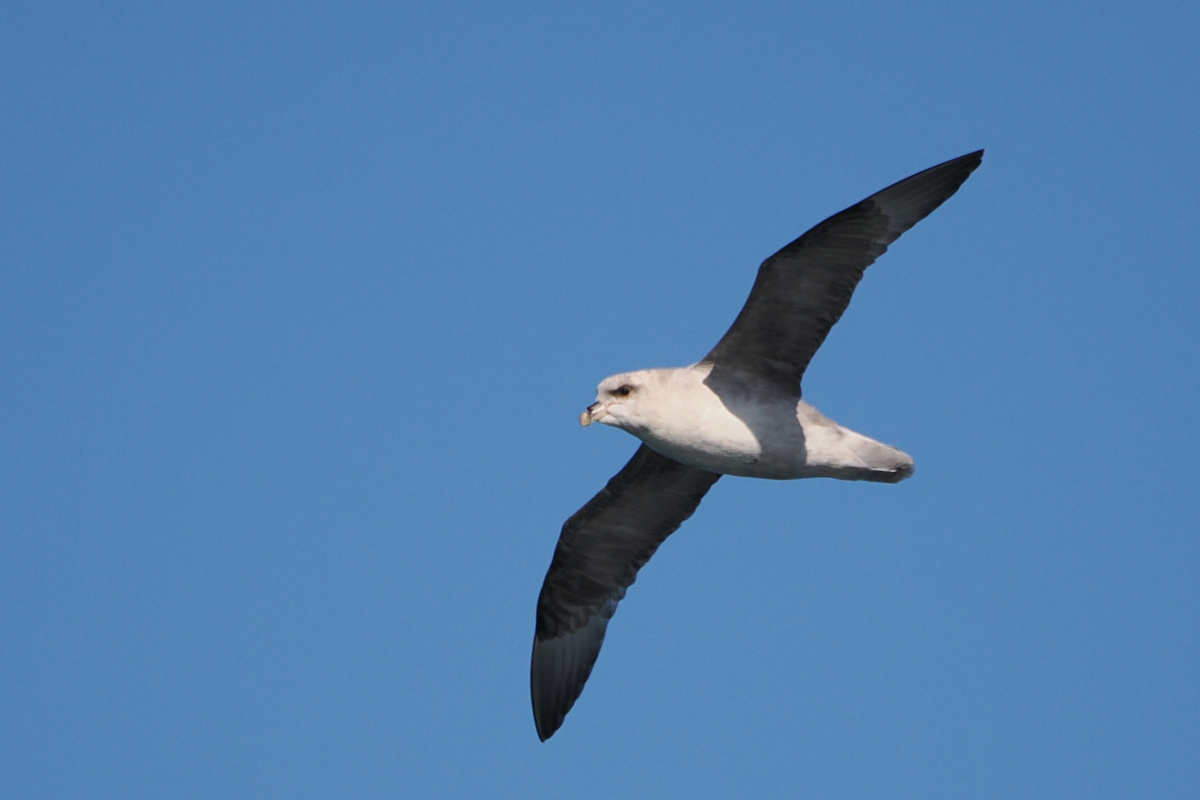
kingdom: Animalia
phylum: Chordata
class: Aves
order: Procellariiformes
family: Procellariidae
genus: Fulmarus
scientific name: Fulmarus glacialis
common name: Northern fulmar
